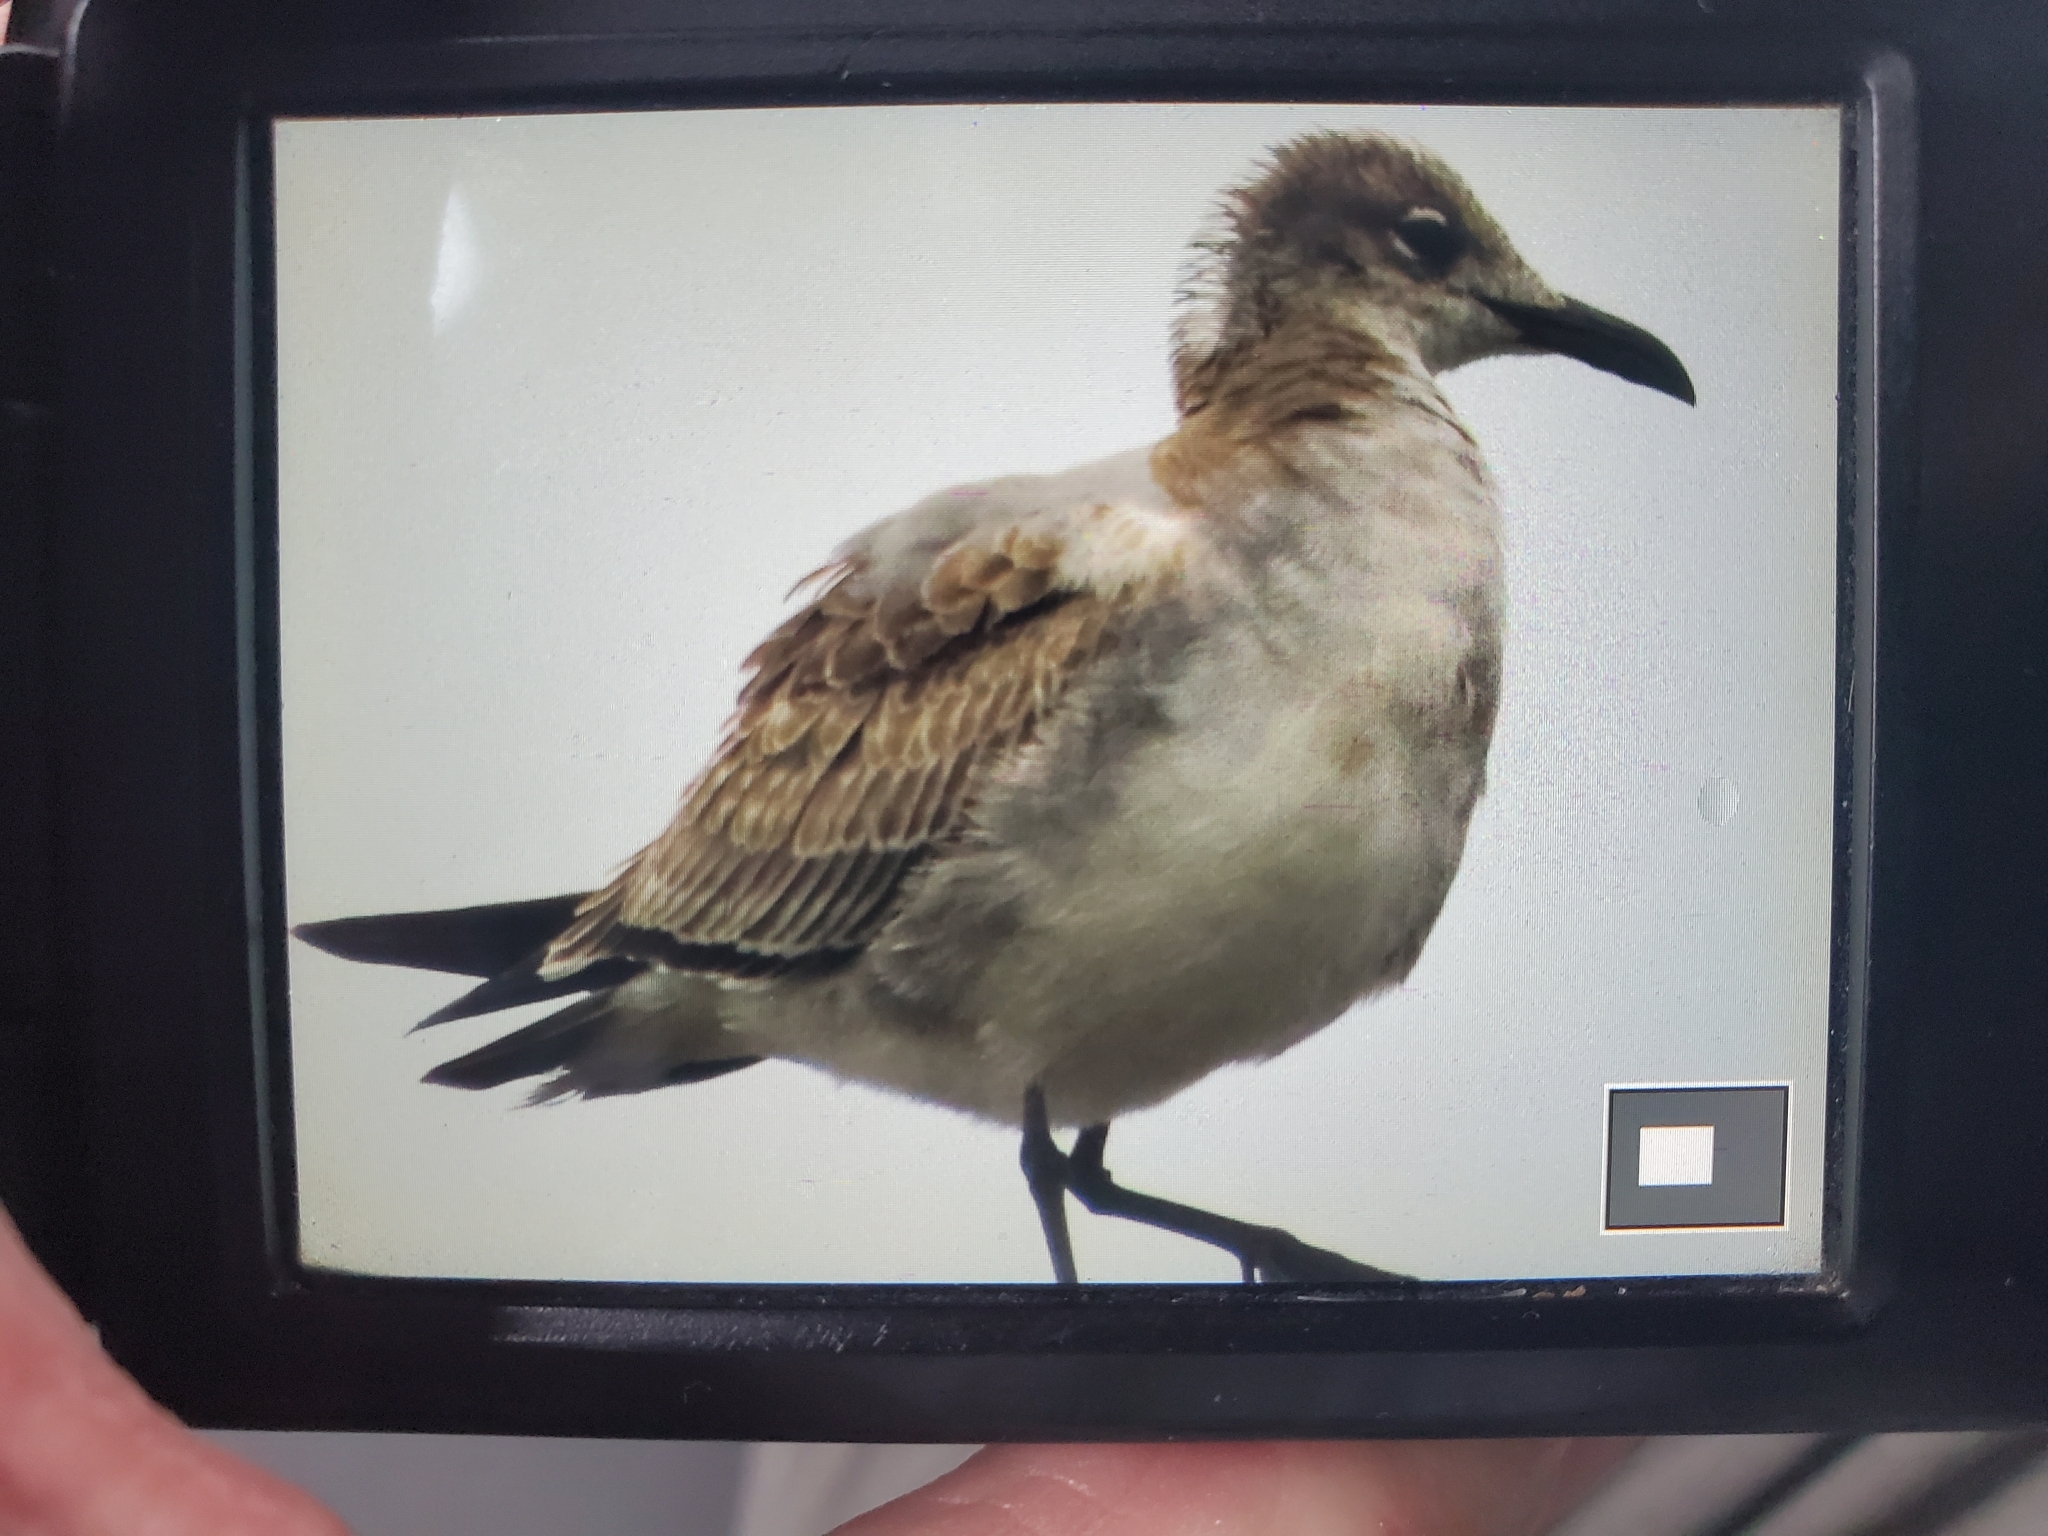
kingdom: Animalia
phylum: Chordata
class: Aves
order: Charadriiformes
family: Laridae
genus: Leucophaeus
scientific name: Leucophaeus atricilla
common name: Laughing gull
